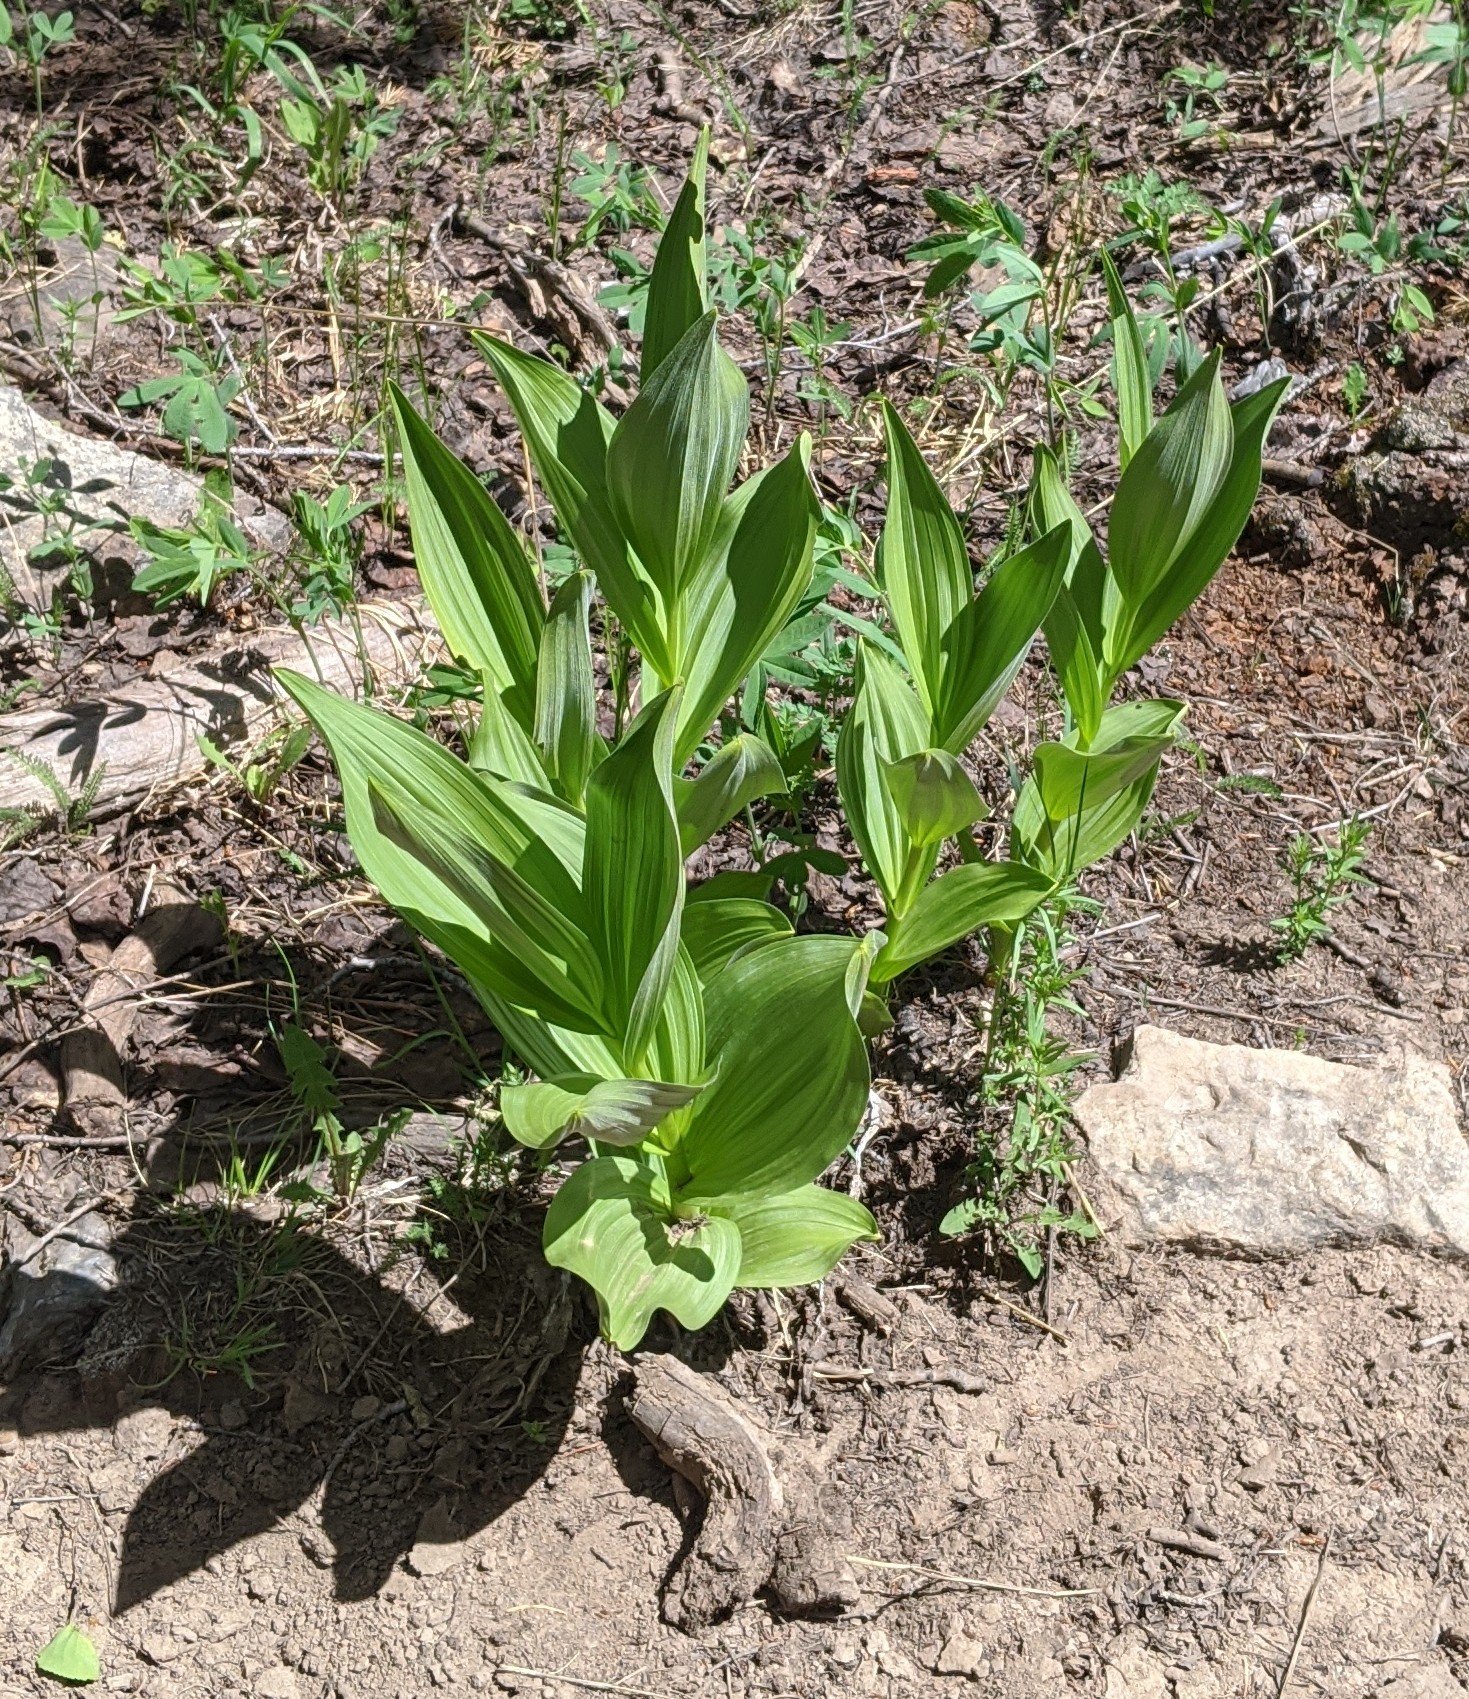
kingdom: Plantae
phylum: Tracheophyta
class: Liliopsida
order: Liliales
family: Melanthiaceae
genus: Veratrum
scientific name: Veratrum californicum
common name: California veratrum
